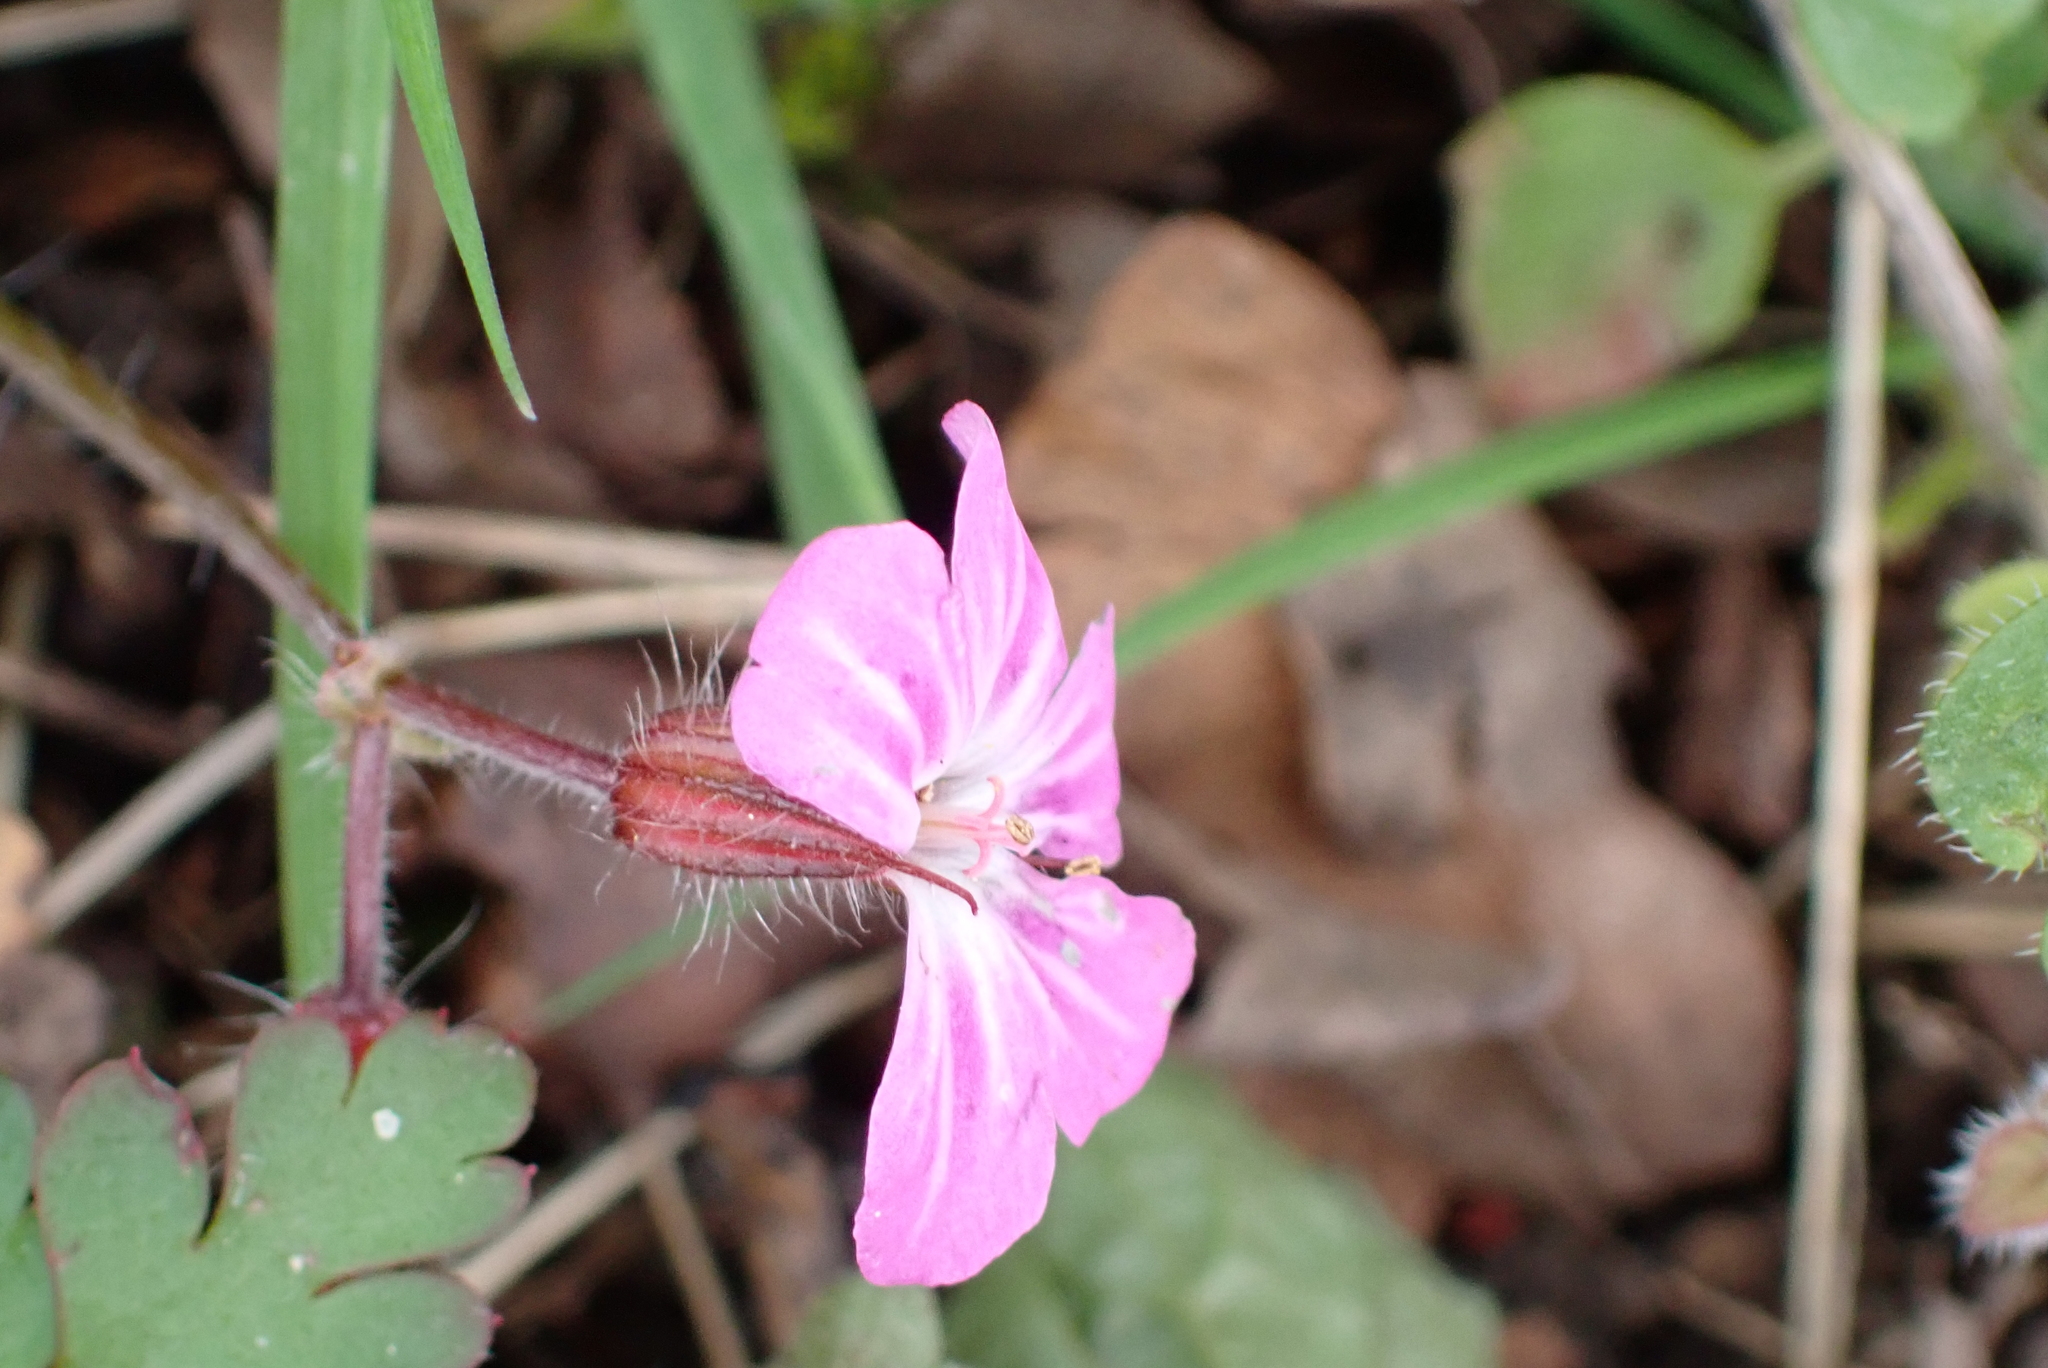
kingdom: Plantae
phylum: Tracheophyta
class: Magnoliopsida
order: Geraniales
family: Geraniaceae
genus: Geranium
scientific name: Geranium robertianum
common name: Herb-robert
